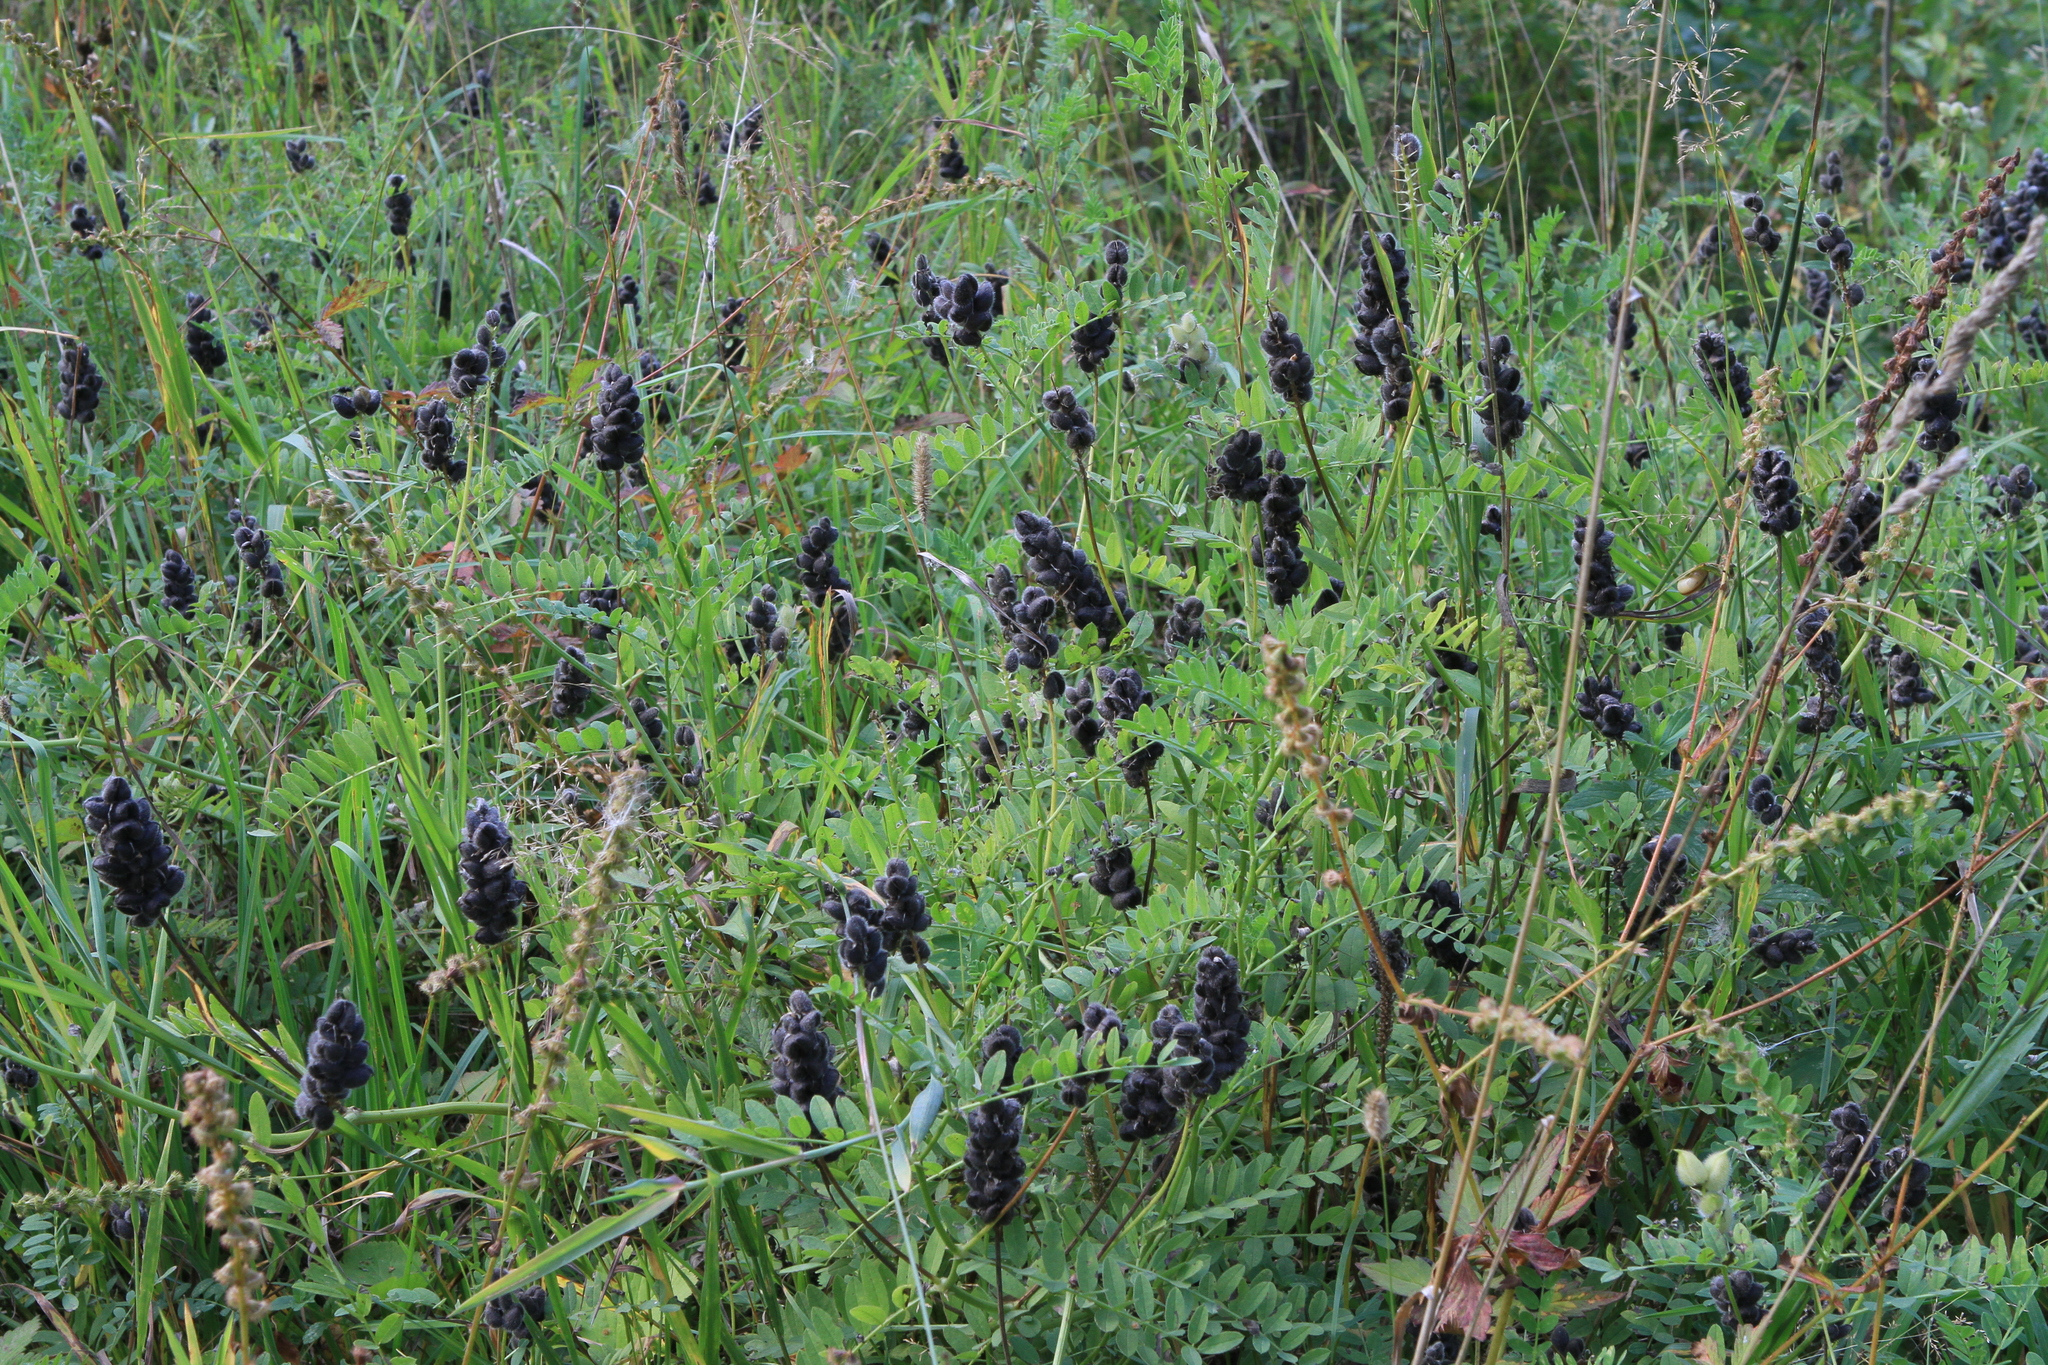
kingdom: Plantae
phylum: Tracheophyta
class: Magnoliopsida
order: Fabales
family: Fabaceae
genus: Astragalus
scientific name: Astragalus cicer
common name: Chick-pea milk-vetch
